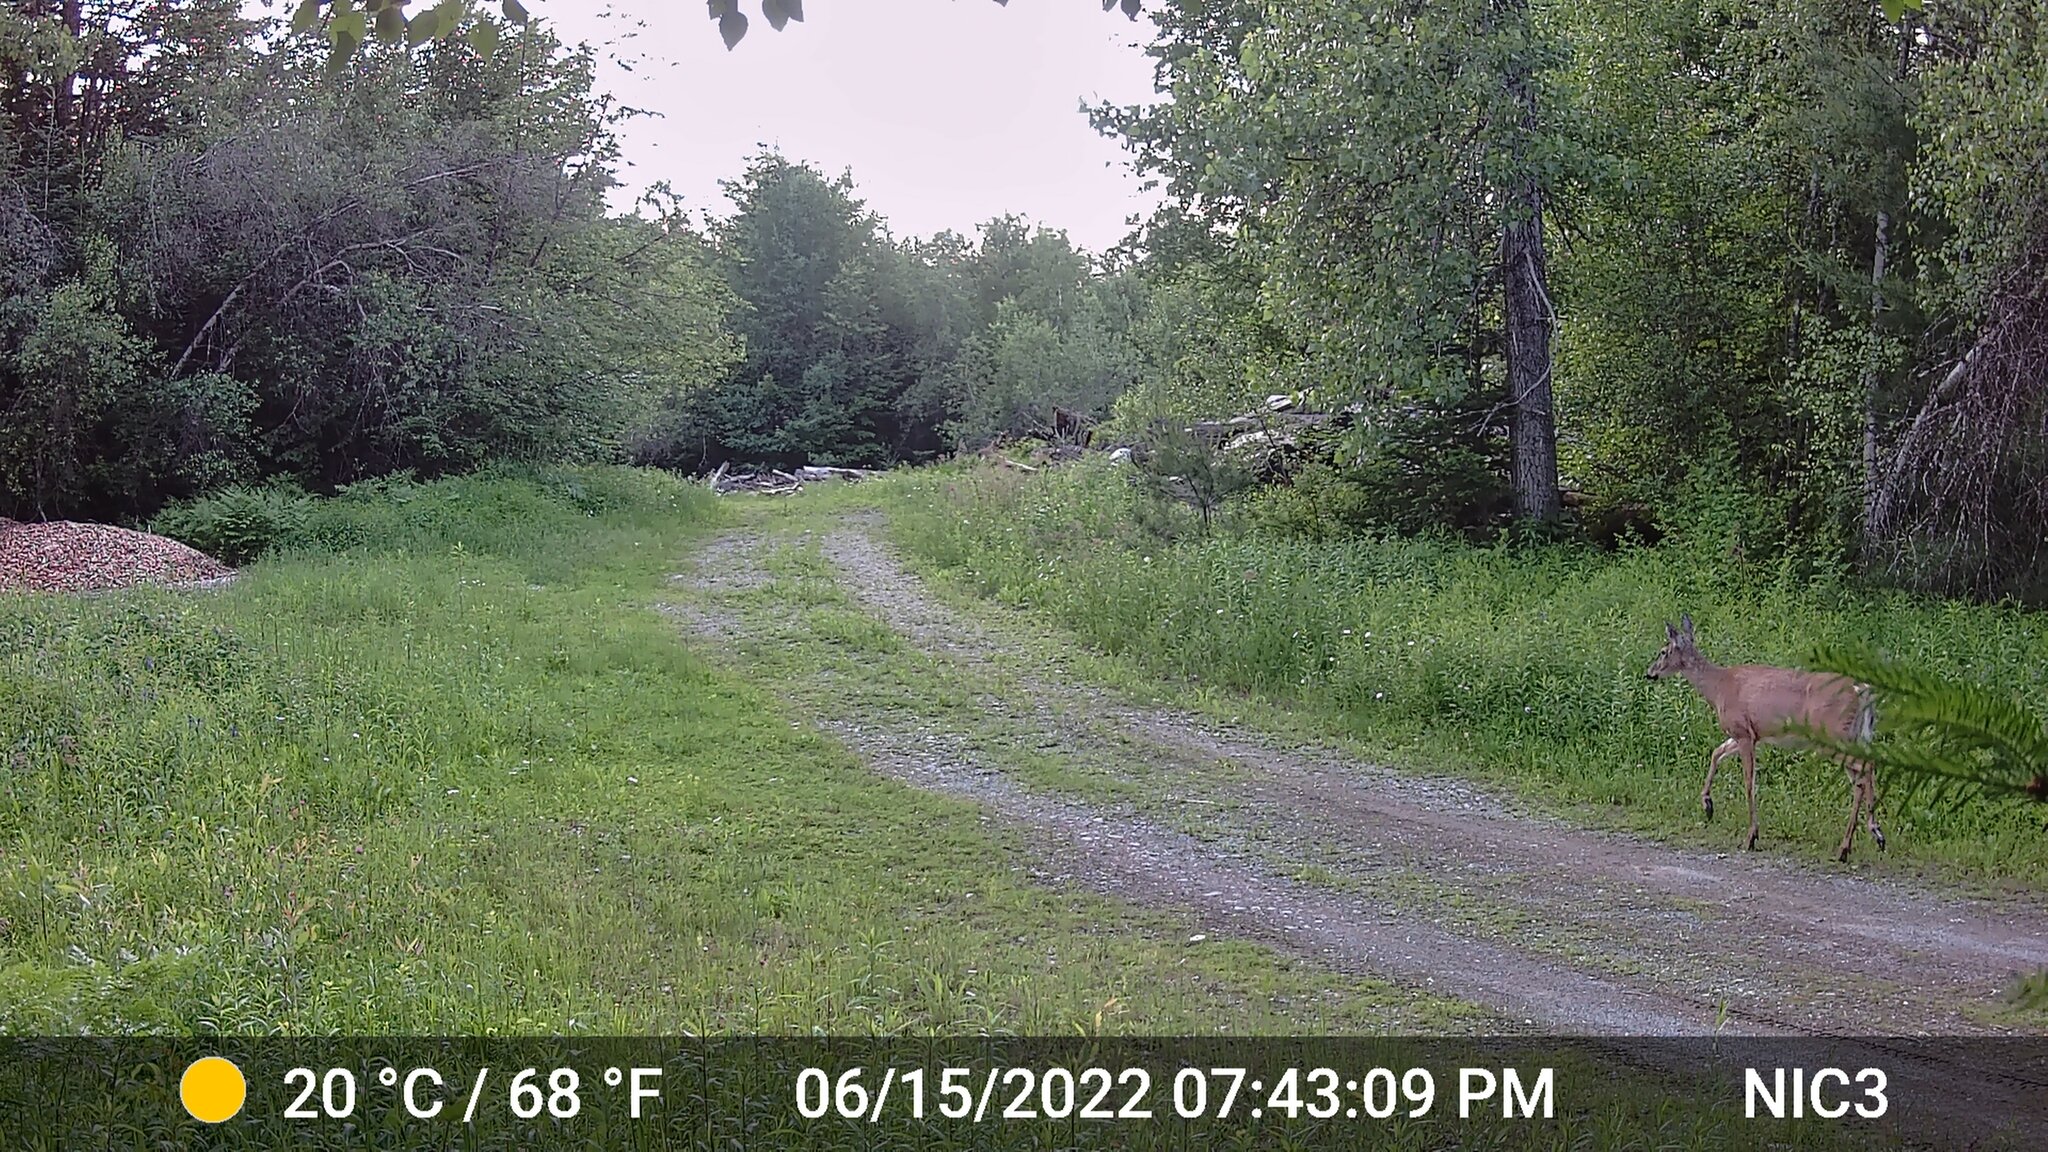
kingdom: Animalia
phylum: Chordata
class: Mammalia
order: Artiodactyla
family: Cervidae
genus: Odocoileus
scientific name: Odocoileus virginianus
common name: White-tailed deer
